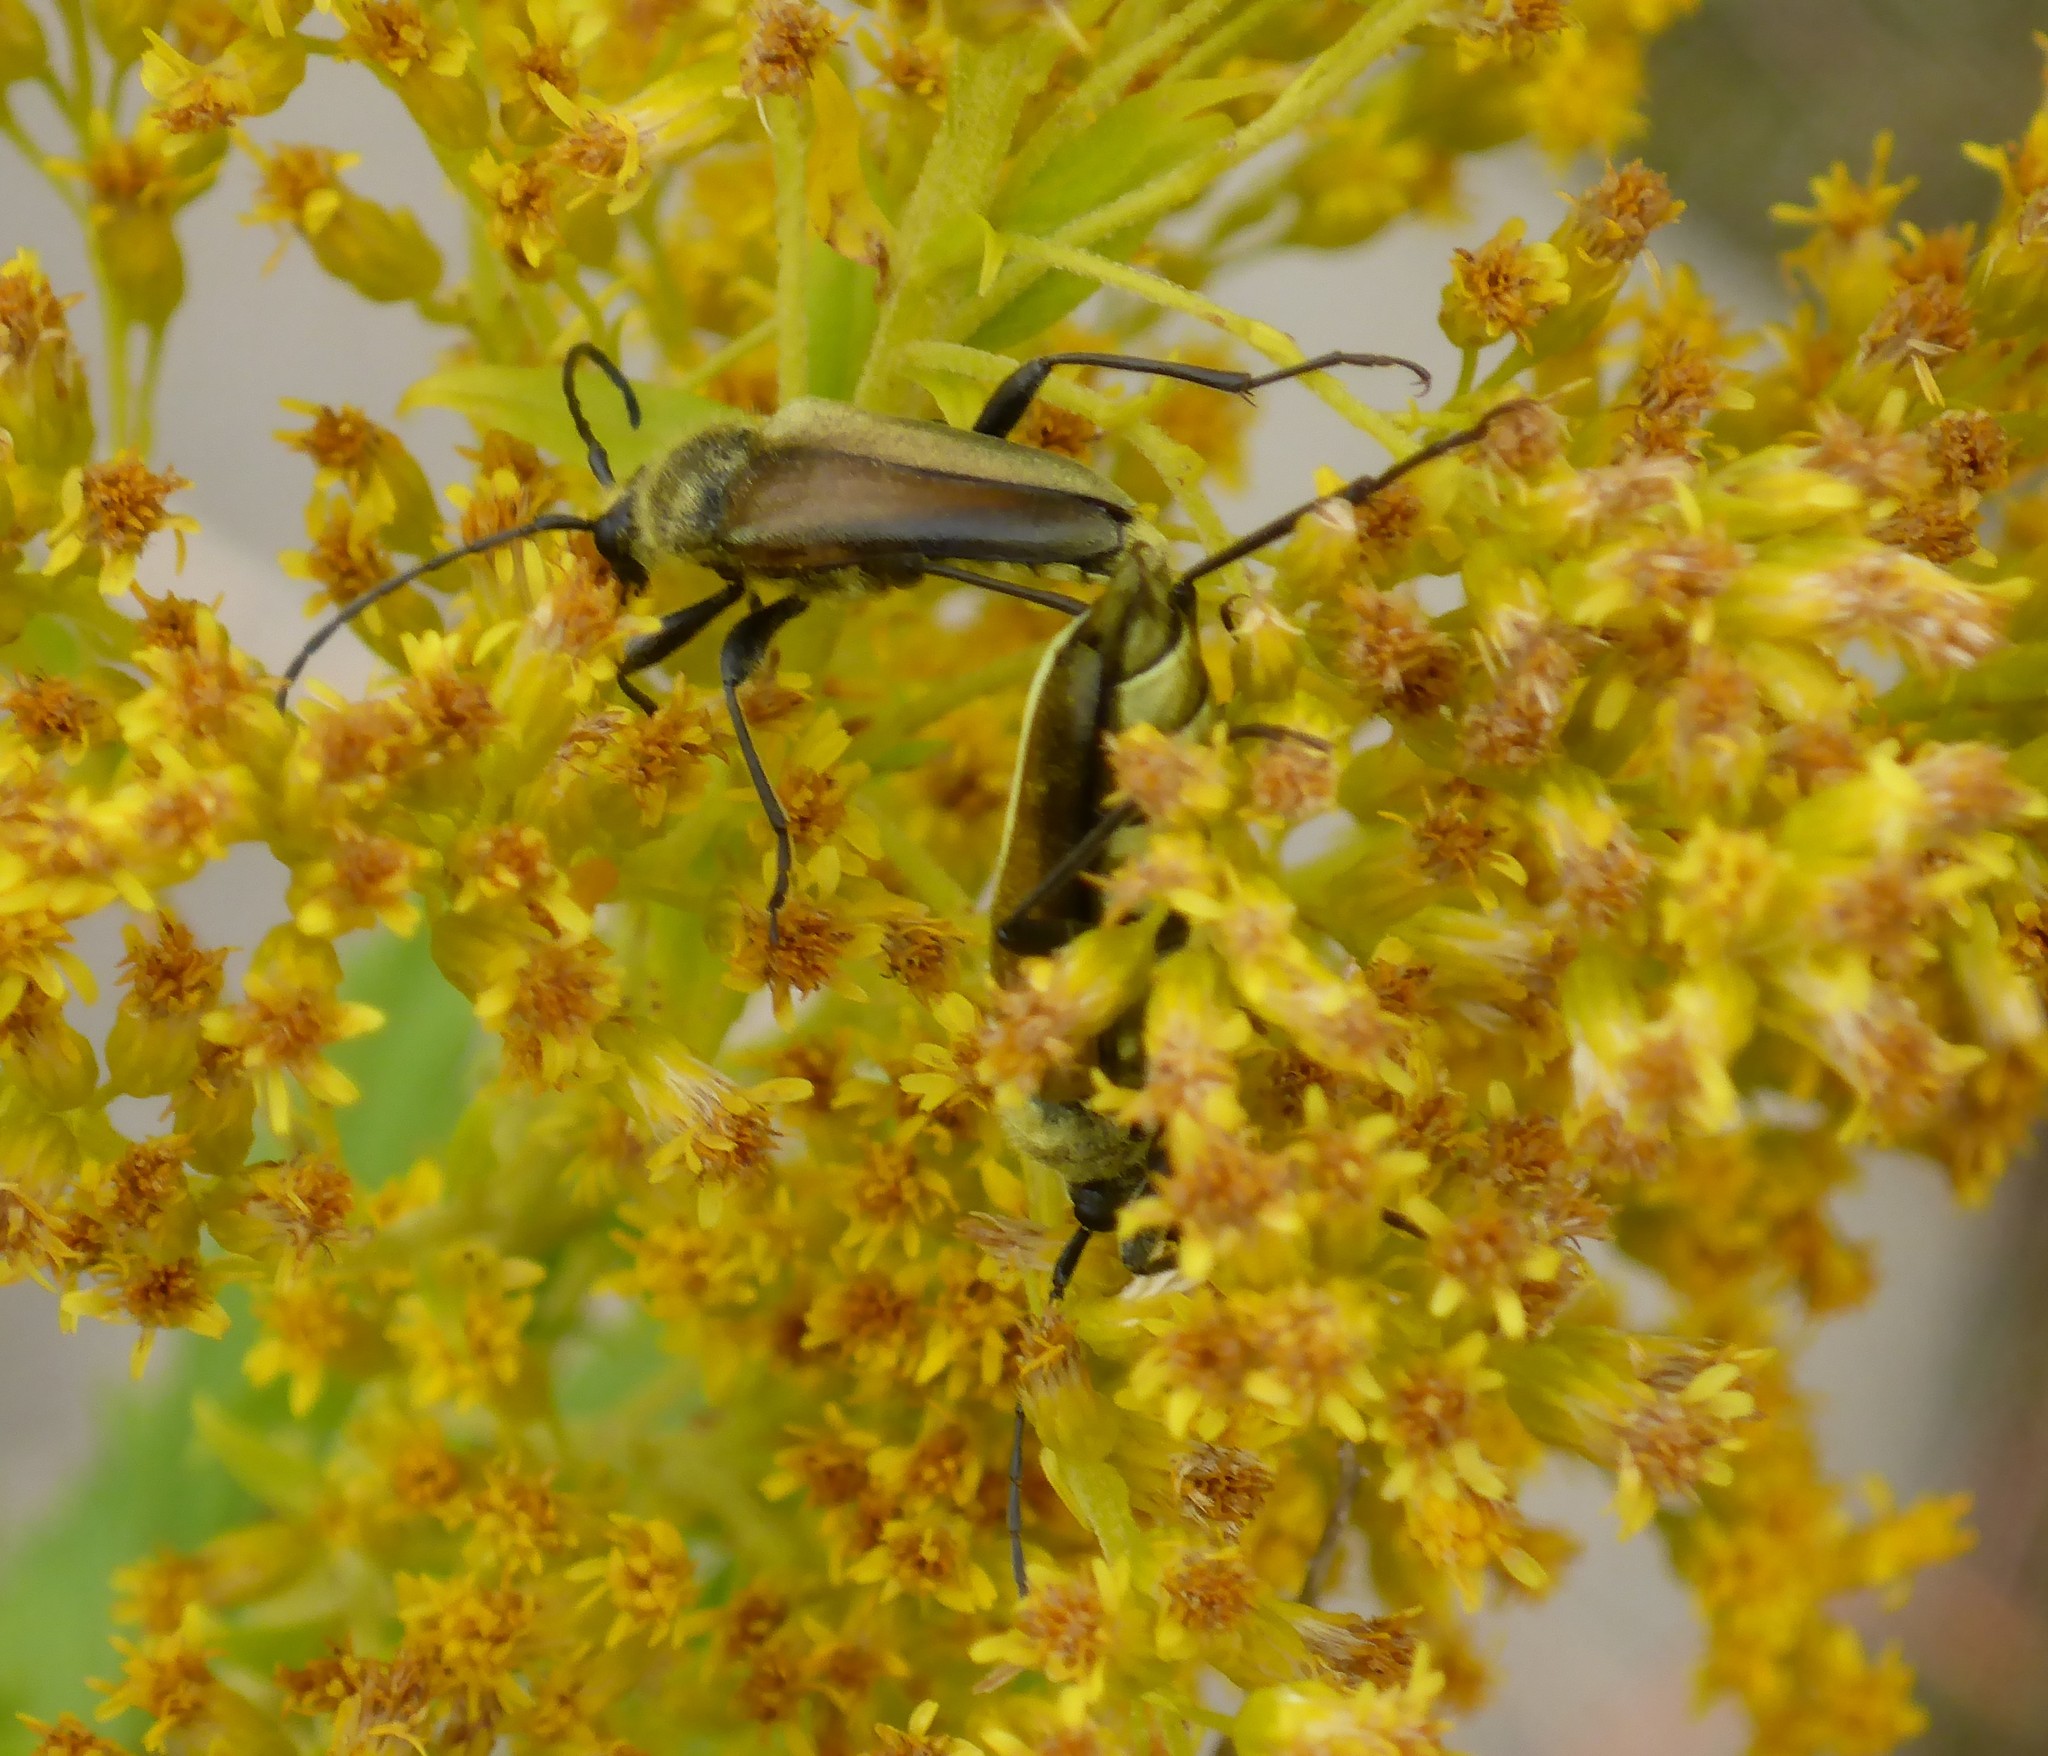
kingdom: Animalia
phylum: Arthropoda
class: Insecta
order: Coleoptera
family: Cerambycidae
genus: Cosmosalia
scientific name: Cosmosalia chrysocoma
